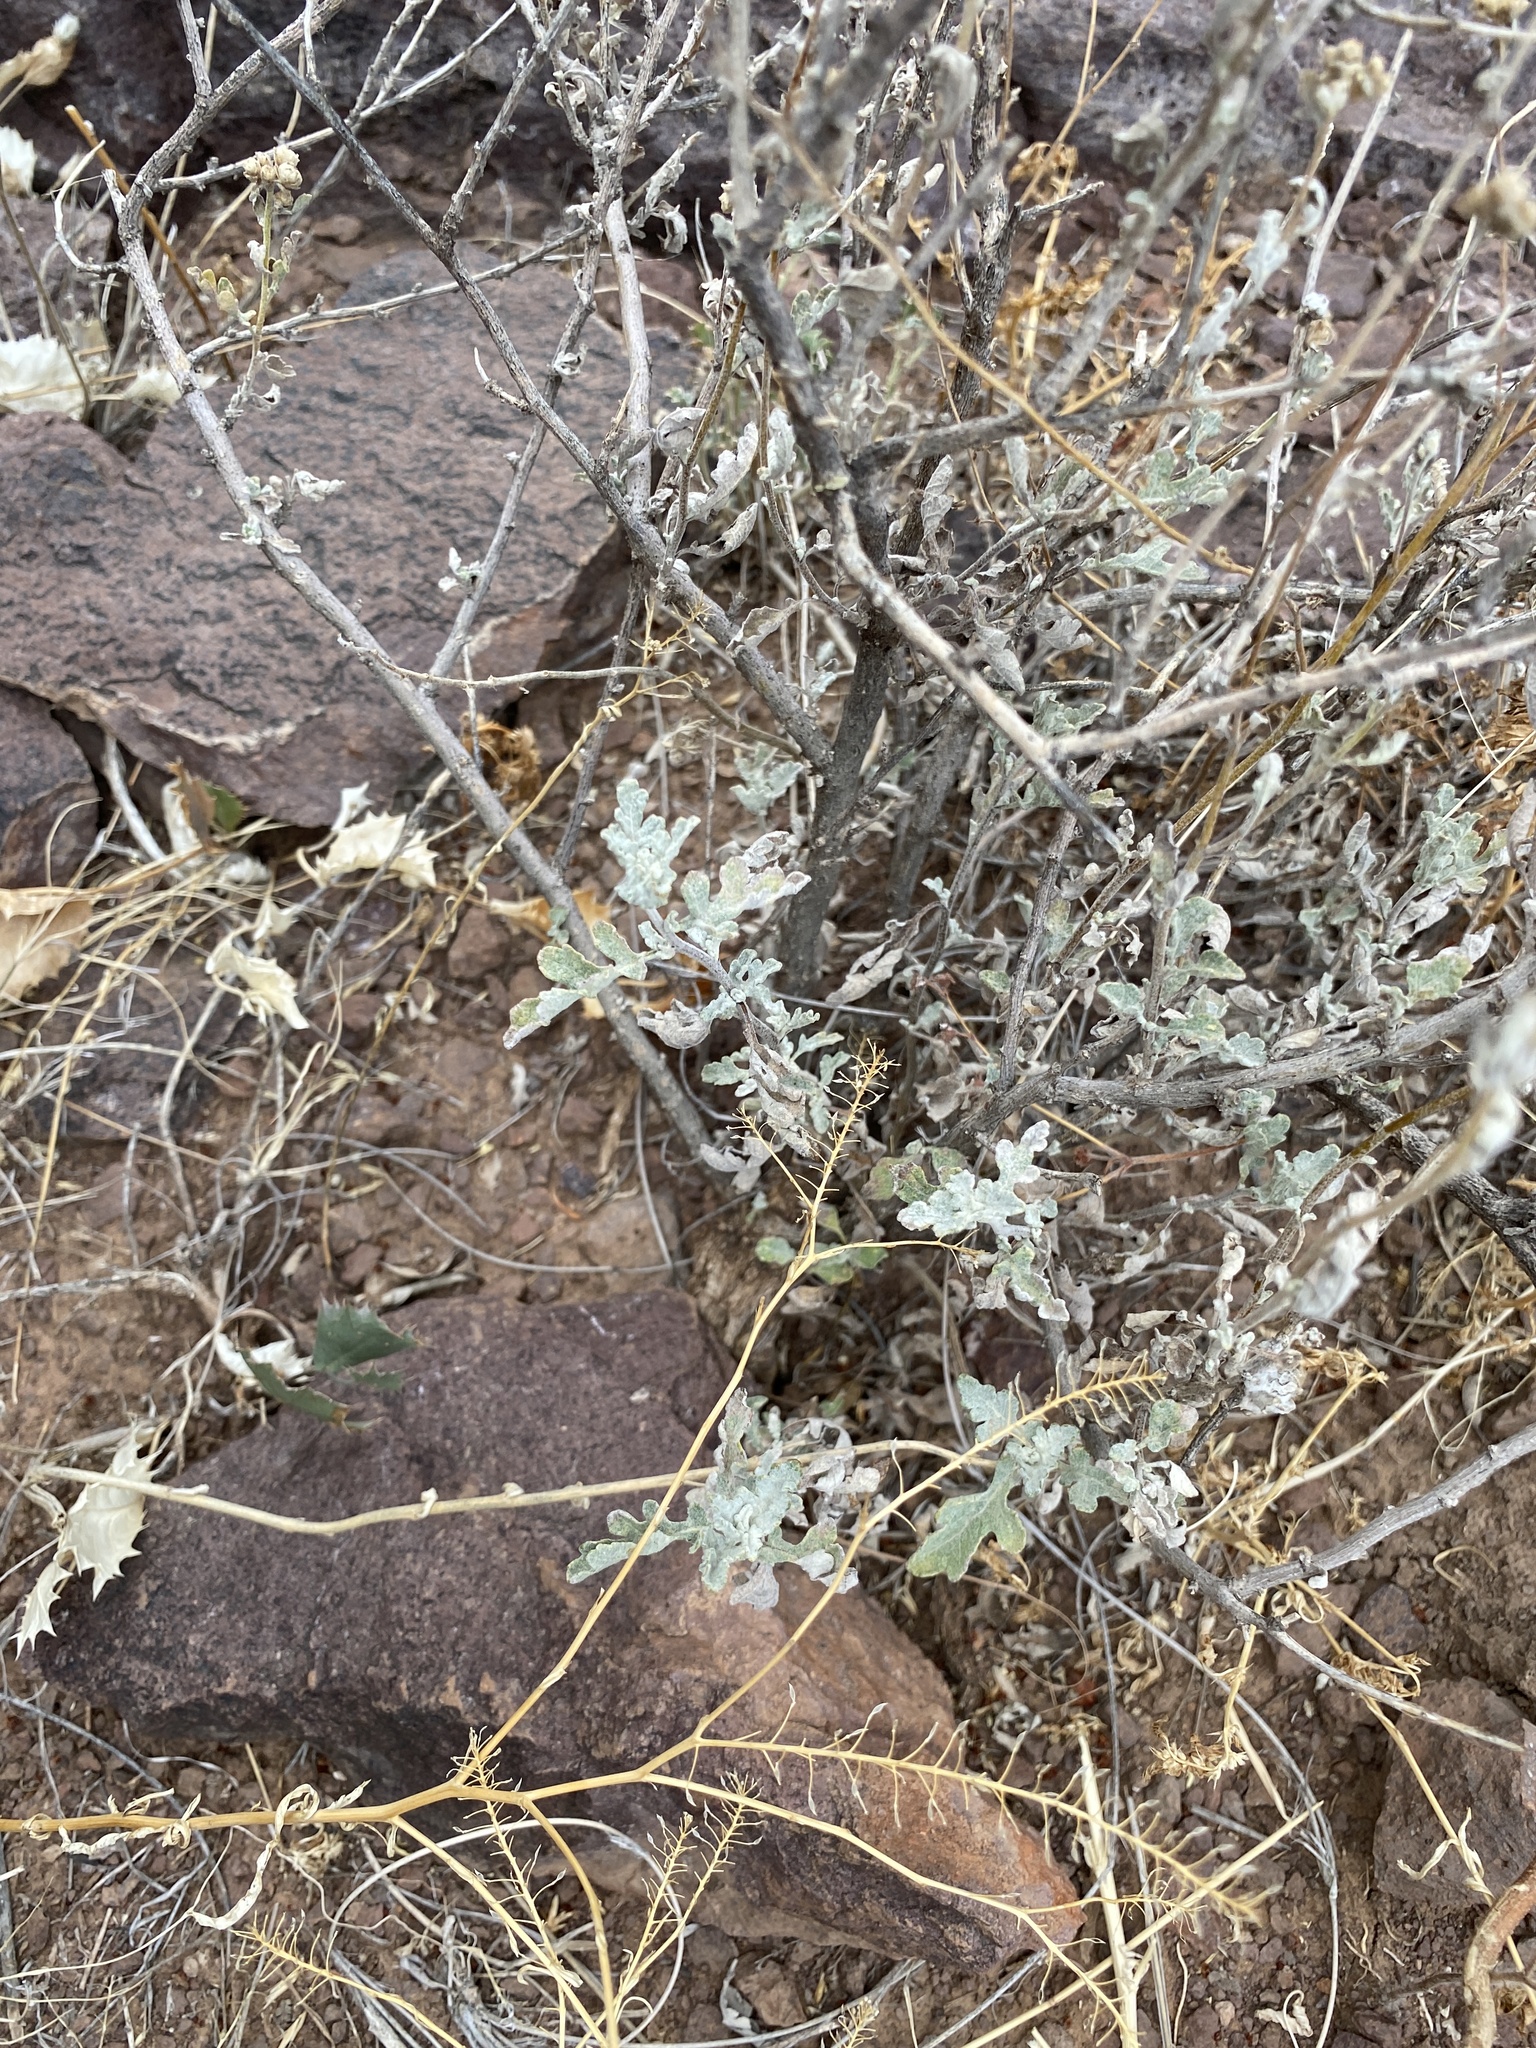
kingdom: Plantae
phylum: Tracheophyta
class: Magnoliopsida
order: Asterales
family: Asteraceae
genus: Parthenium
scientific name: Parthenium incanum
